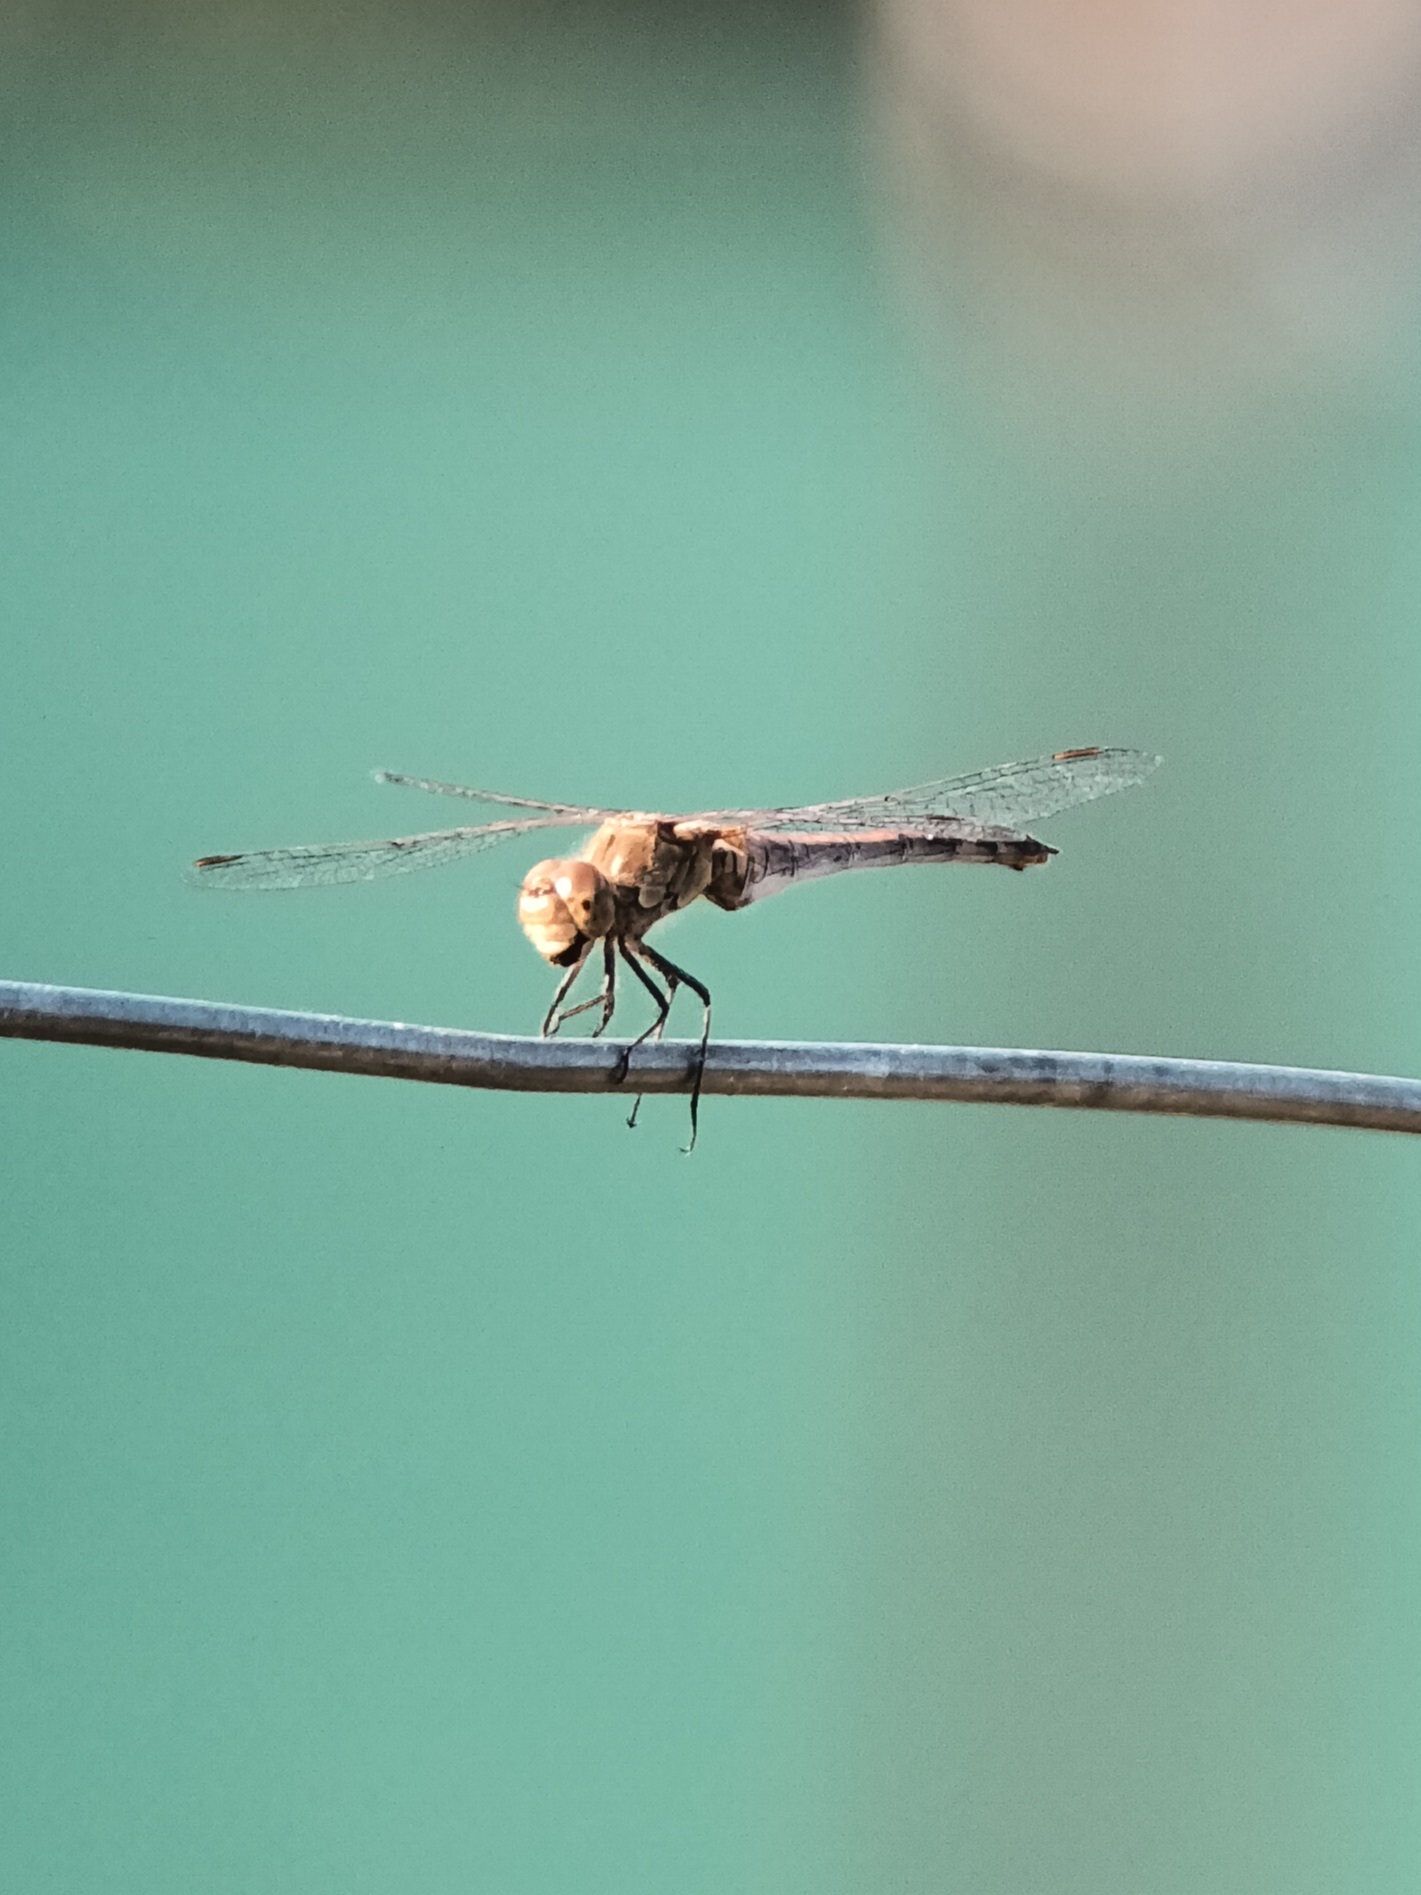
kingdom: Animalia
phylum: Arthropoda
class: Insecta
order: Odonata
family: Libellulidae
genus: Sympetrum
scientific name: Sympetrum striolatum
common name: Common darter
